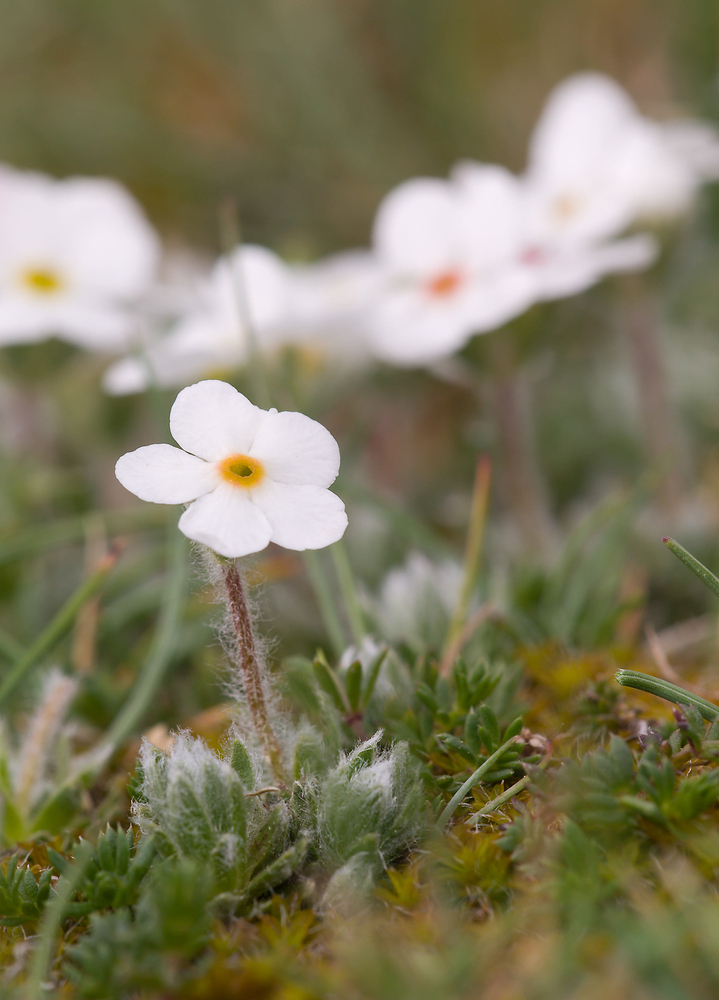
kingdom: Plantae
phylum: Tracheophyta
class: Magnoliopsida
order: Ericales
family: Primulaceae
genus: Androsace
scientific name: Androsace villosa
